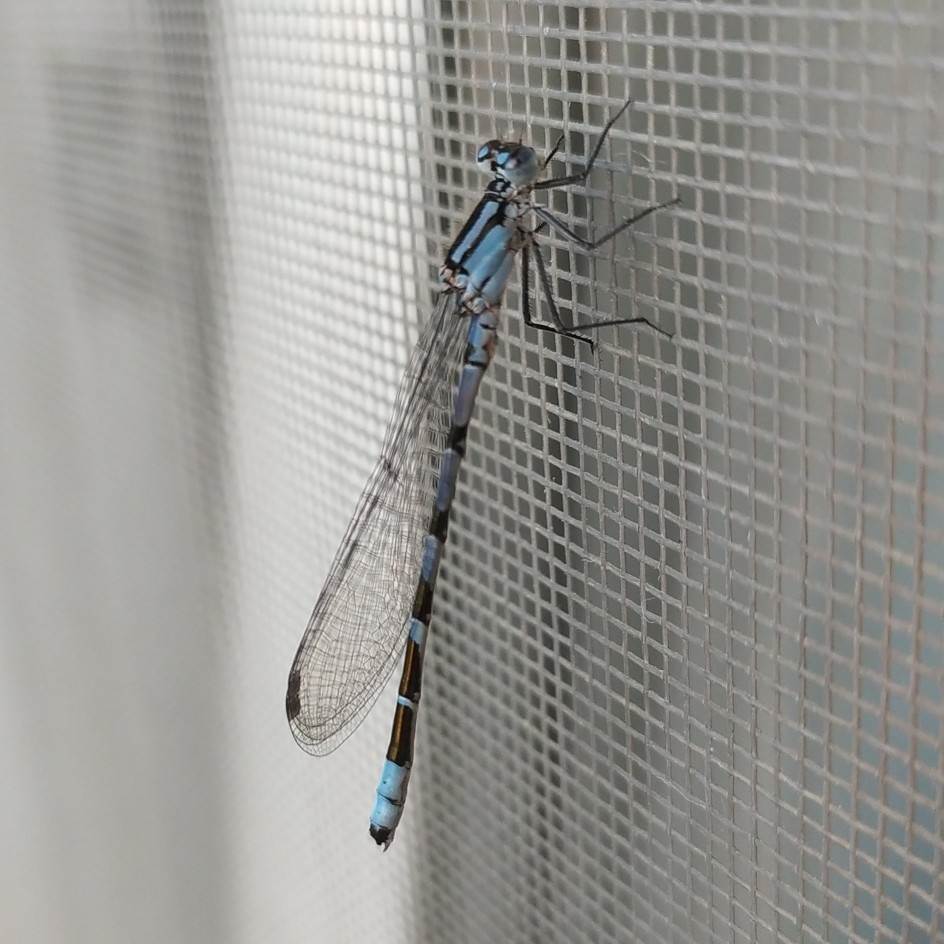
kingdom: Animalia
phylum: Arthropoda
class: Insecta
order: Odonata
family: Coenagrionidae
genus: Enallagma
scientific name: Enallagma cyathigerum
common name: Common blue damselfly
